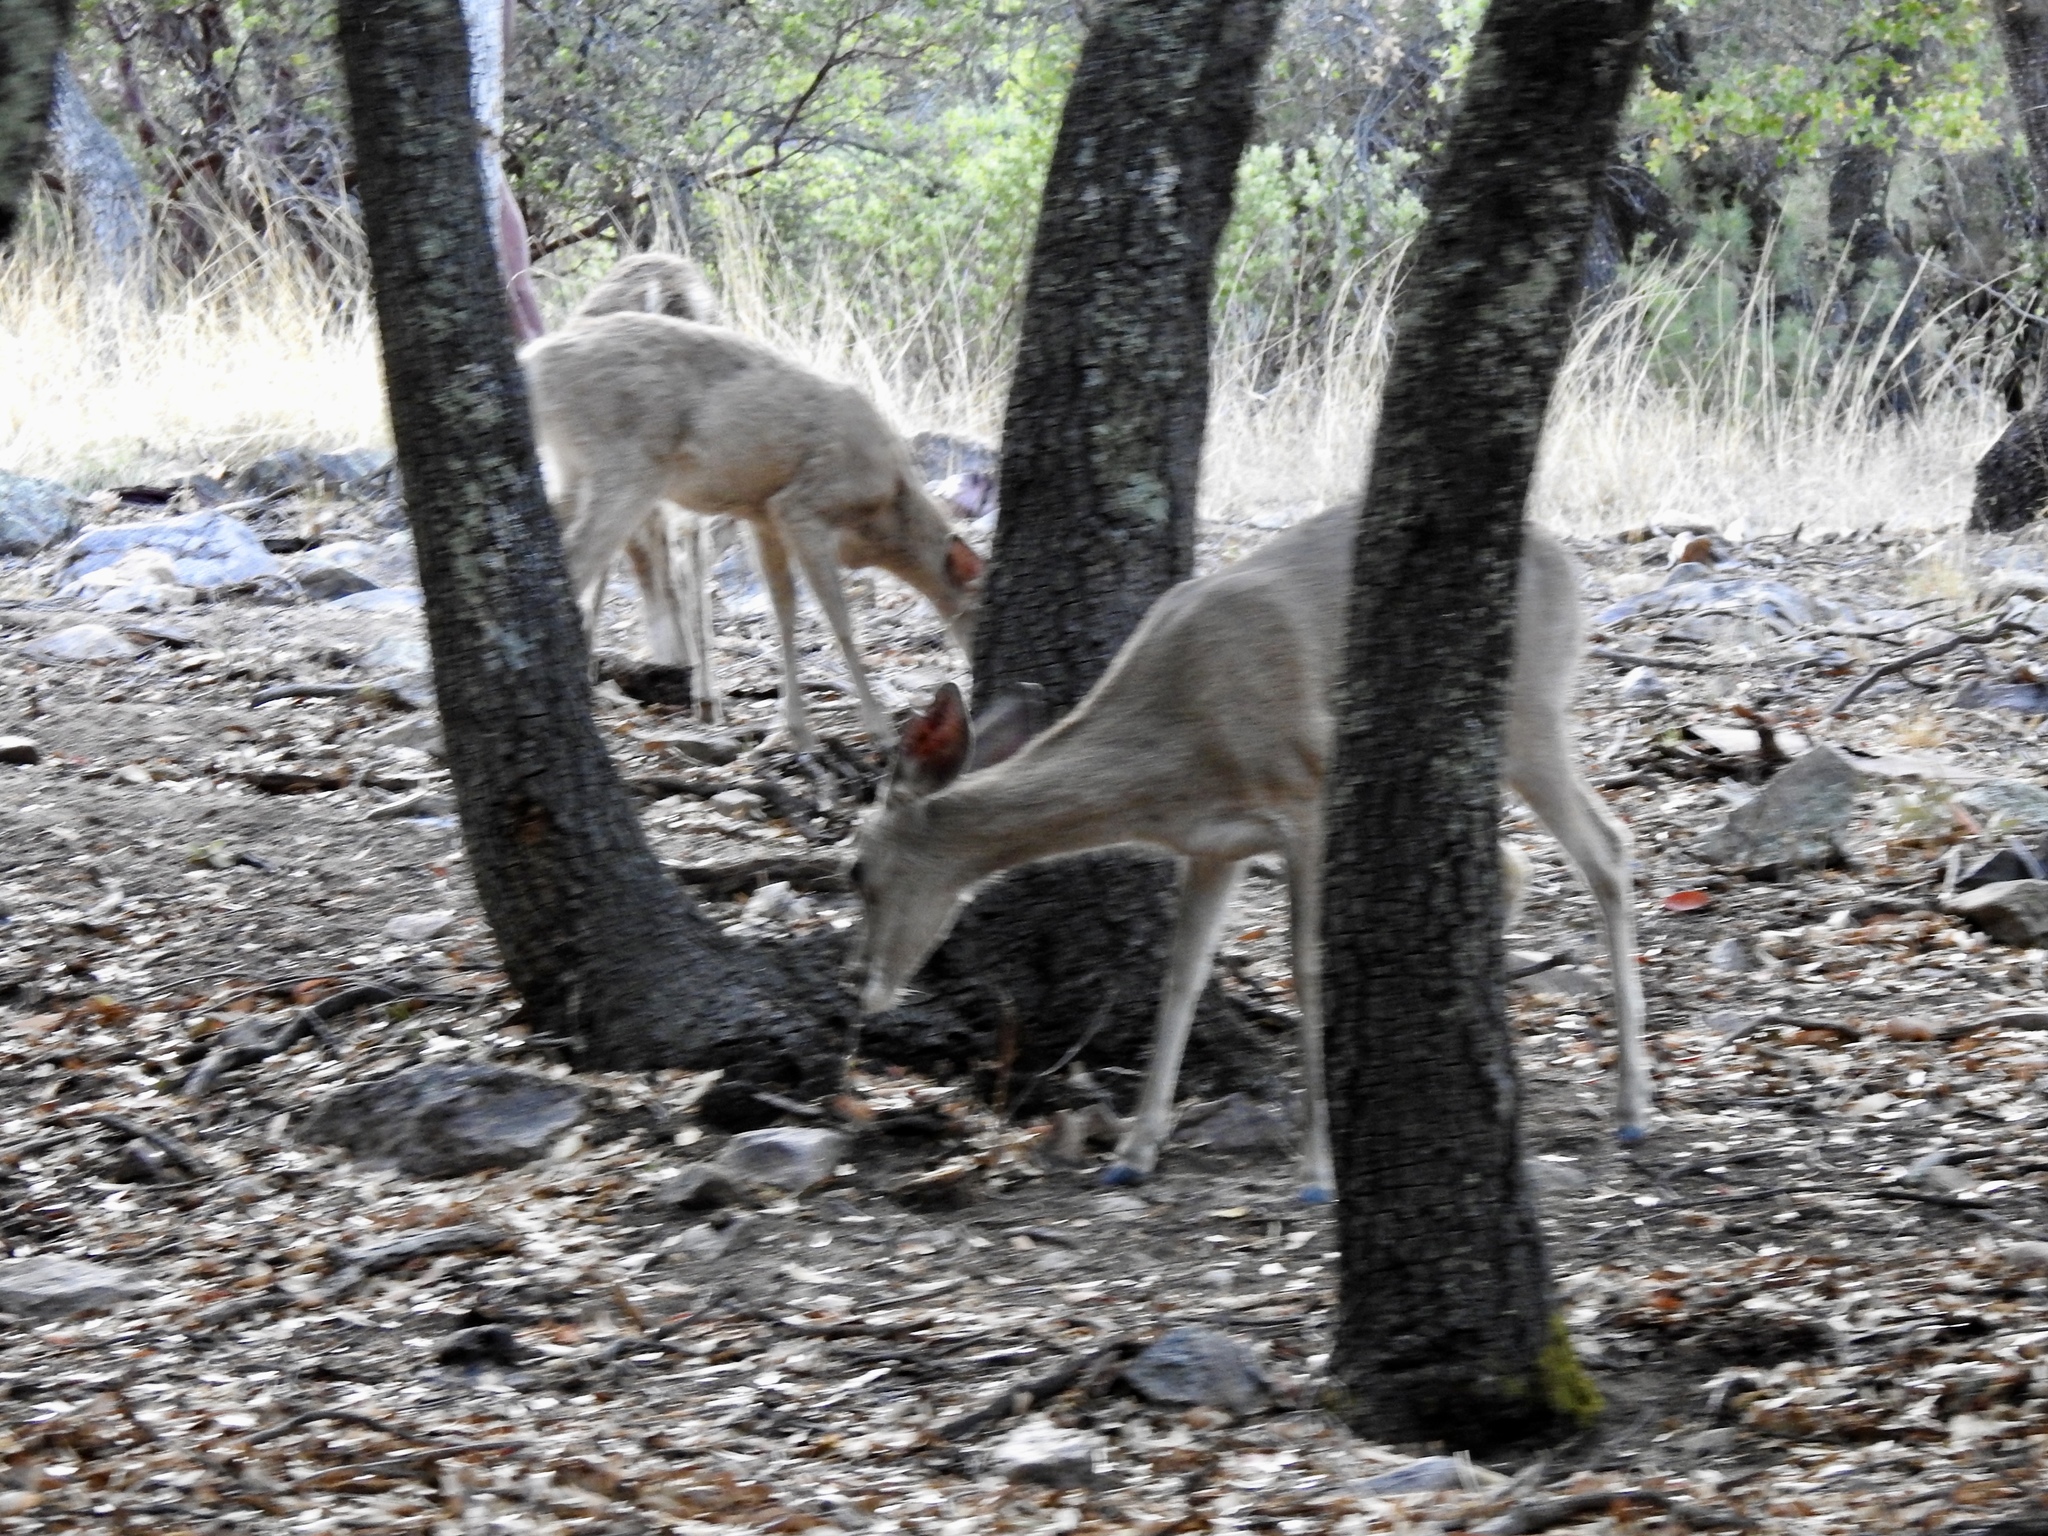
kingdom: Animalia
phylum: Chordata
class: Mammalia
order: Artiodactyla
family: Cervidae
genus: Odocoileus
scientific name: Odocoileus virginianus
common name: White-tailed deer
